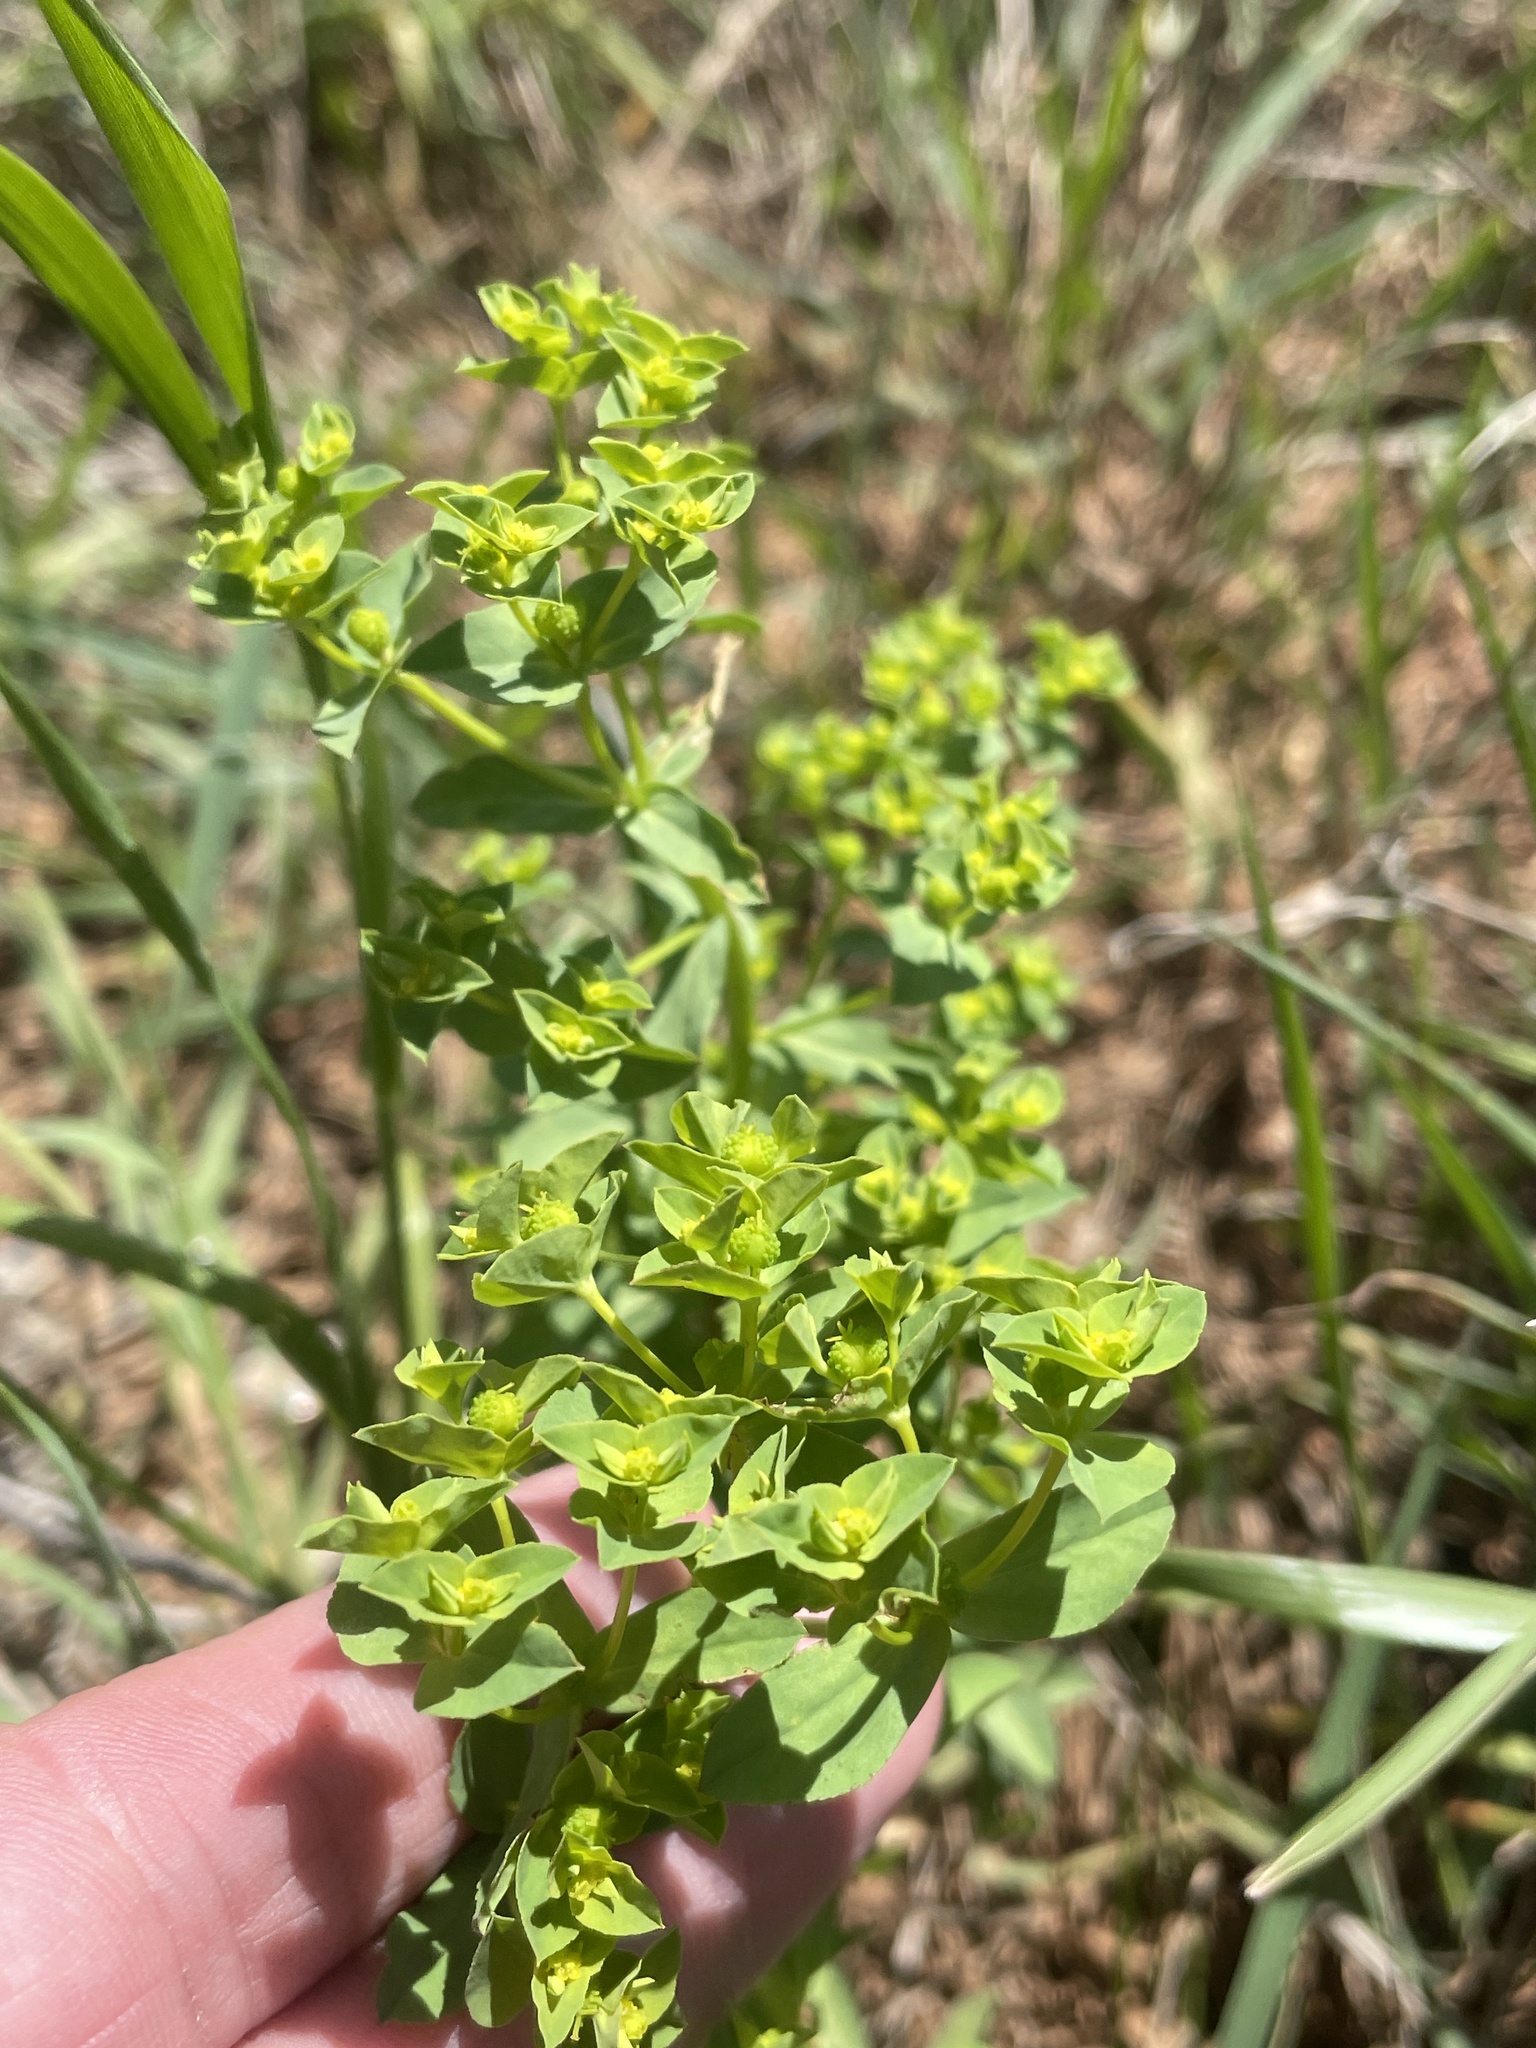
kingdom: Plantae
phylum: Tracheophyta
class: Magnoliopsida
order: Malpighiales
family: Euphorbiaceae
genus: Euphorbia
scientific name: Euphorbia spathulata
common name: Blunt spurge
